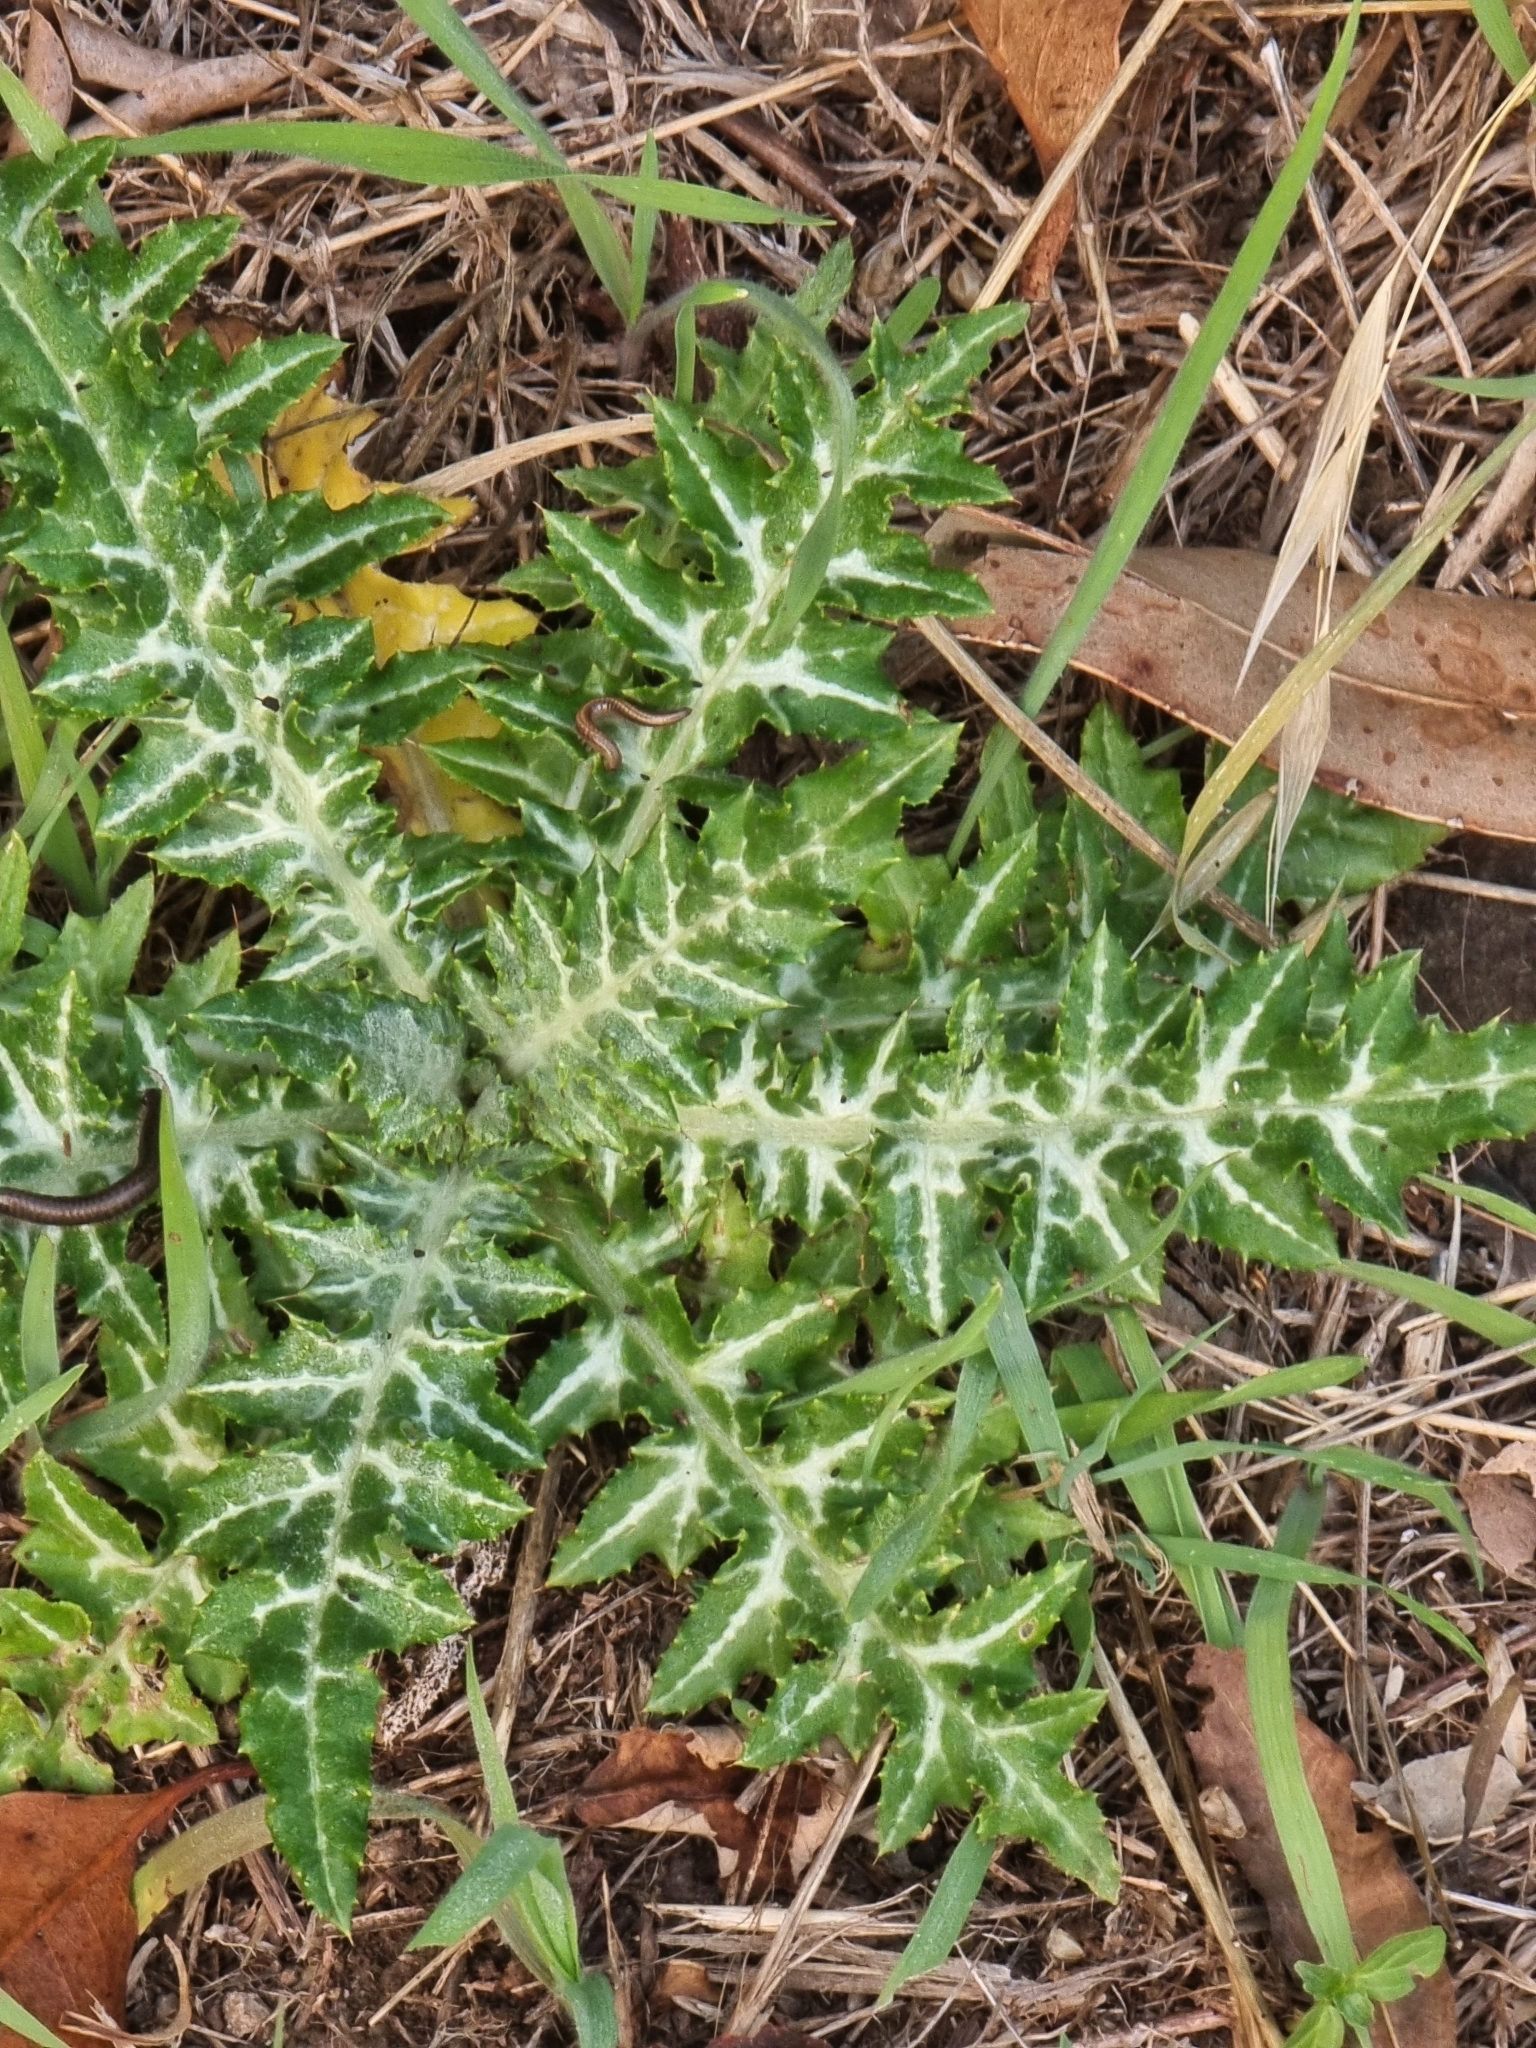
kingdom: Plantae
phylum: Tracheophyta
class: Magnoliopsida
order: Asterales
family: Asteraceae
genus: Galactites
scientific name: Galactites tomentosa
